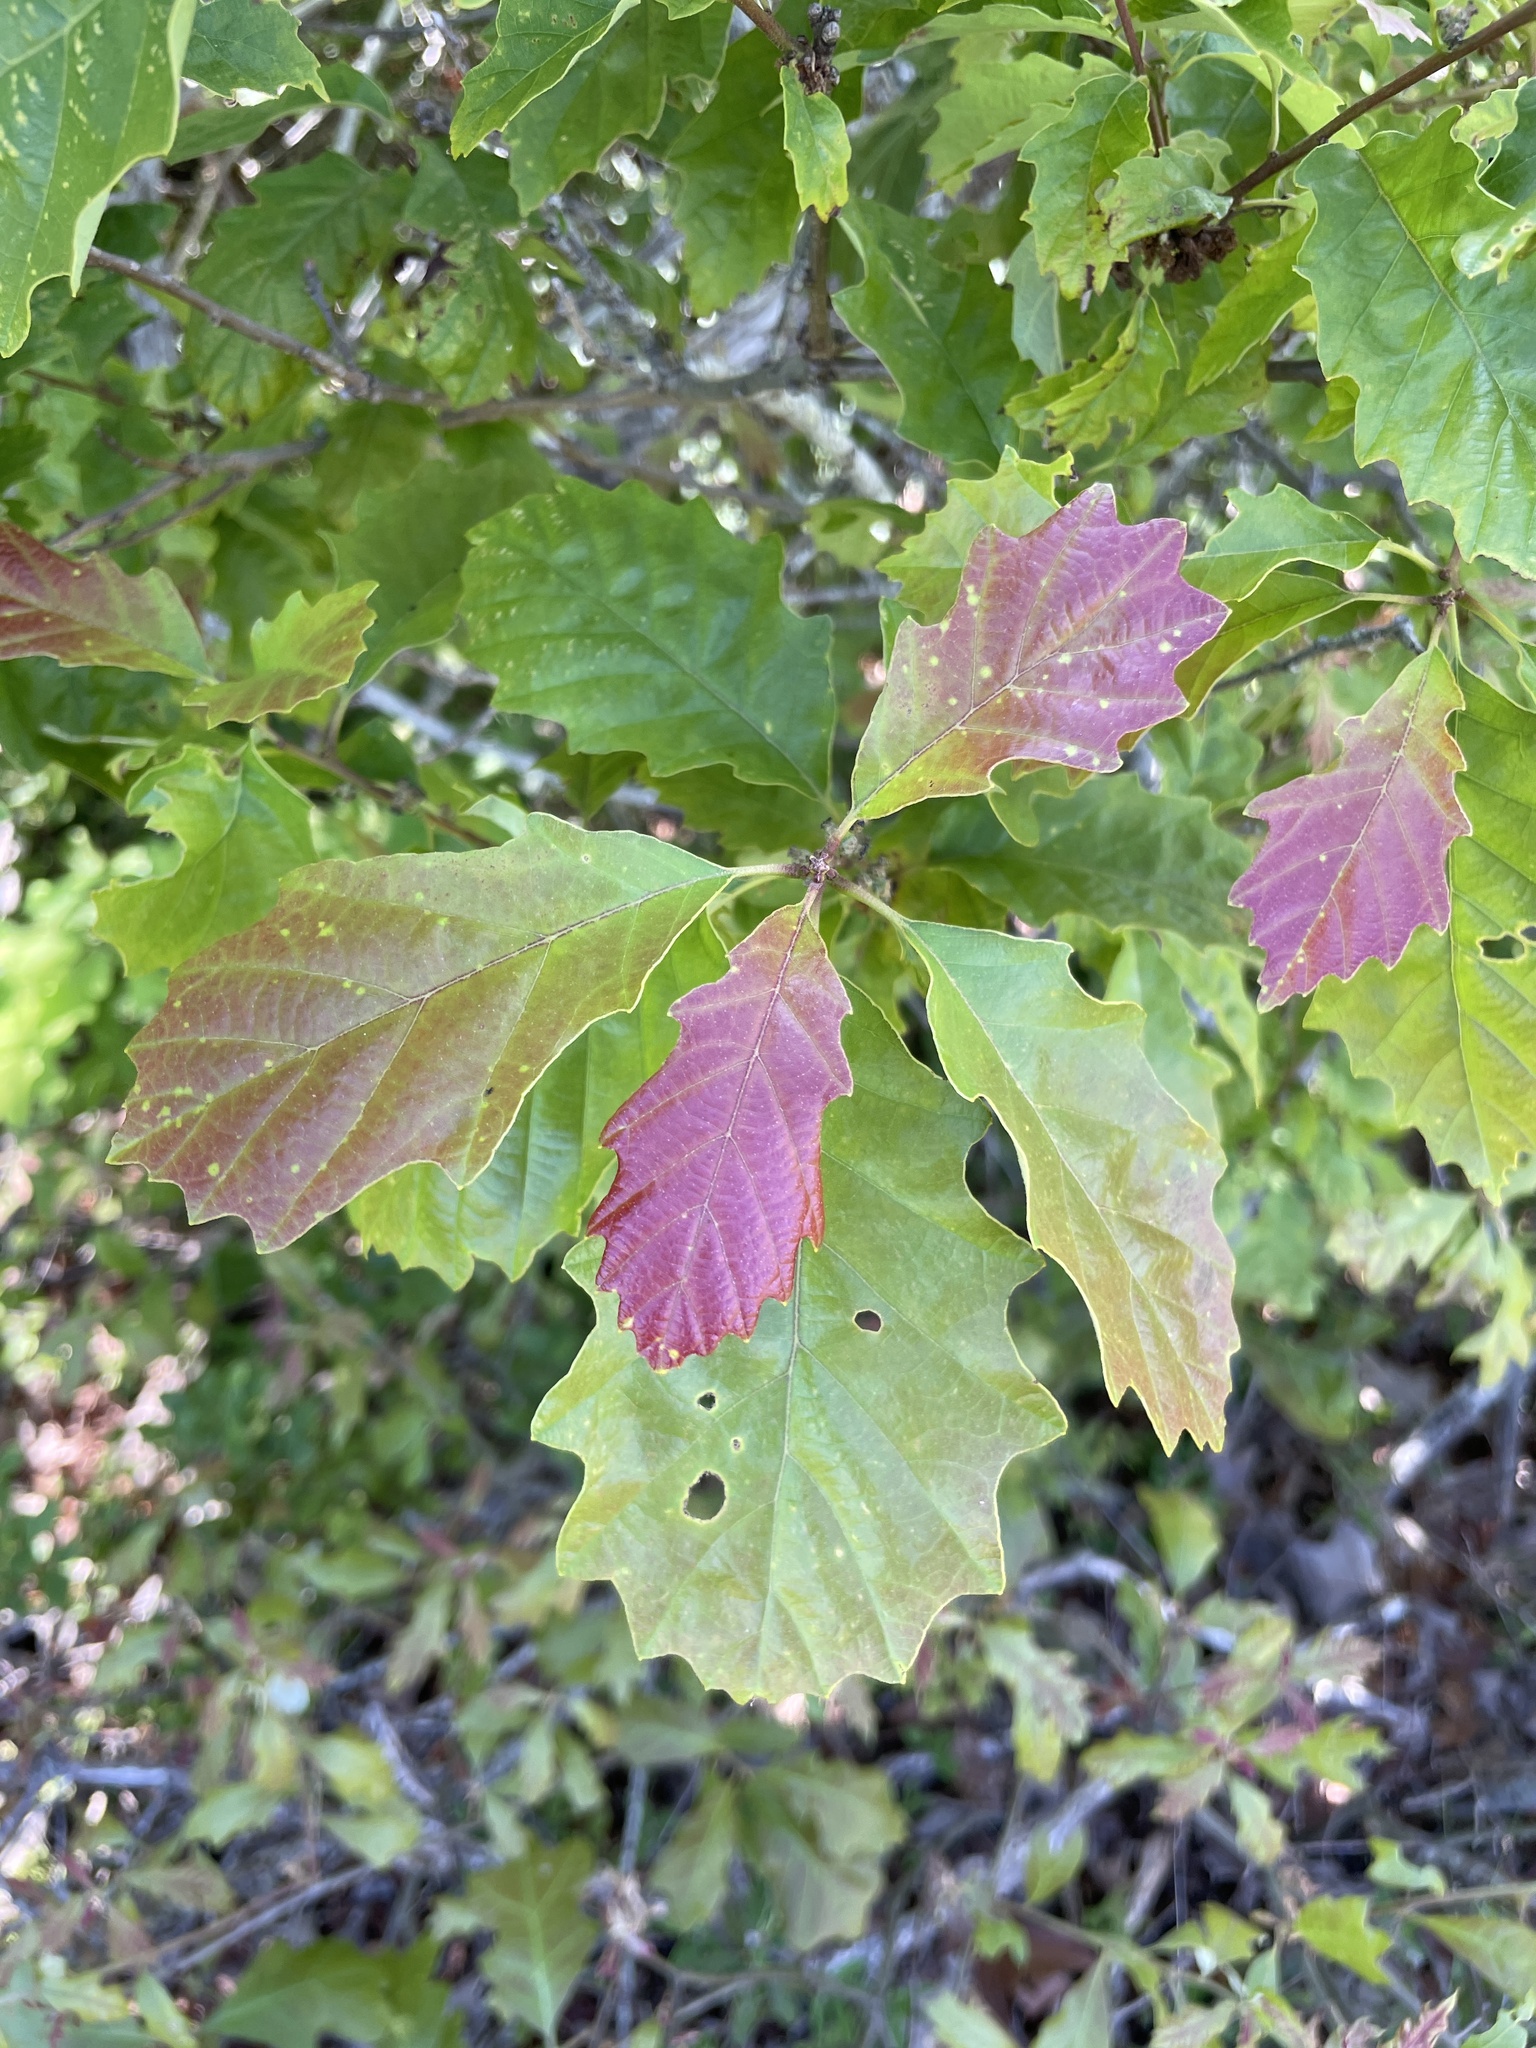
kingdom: Plantae
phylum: Tracheophyta
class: Magnoliopsida
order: Fagales
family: Fagaceae
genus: Quercus
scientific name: Quercus prinoides
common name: Dwarf chinkapin oak
